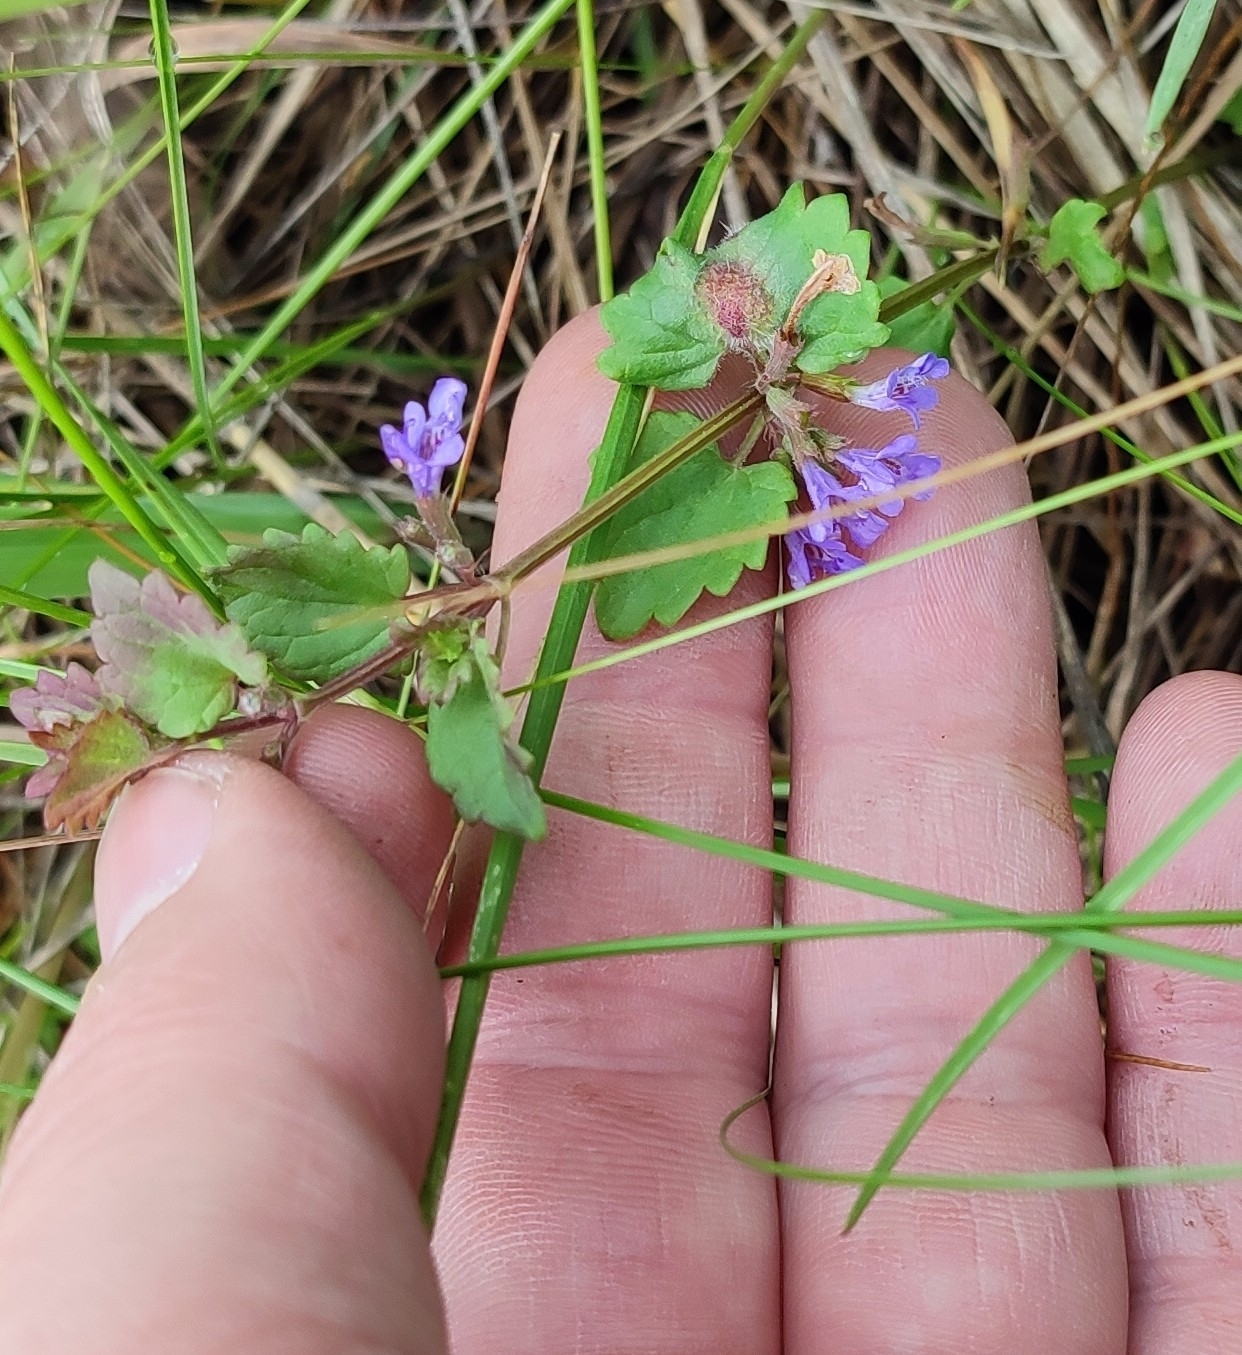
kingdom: Plantae
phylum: Tracheophyta
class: Magnoliopsida
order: Lamiales
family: Lamiaceae
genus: Glechoma
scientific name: Glechoma hederacea
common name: Ground ivy
